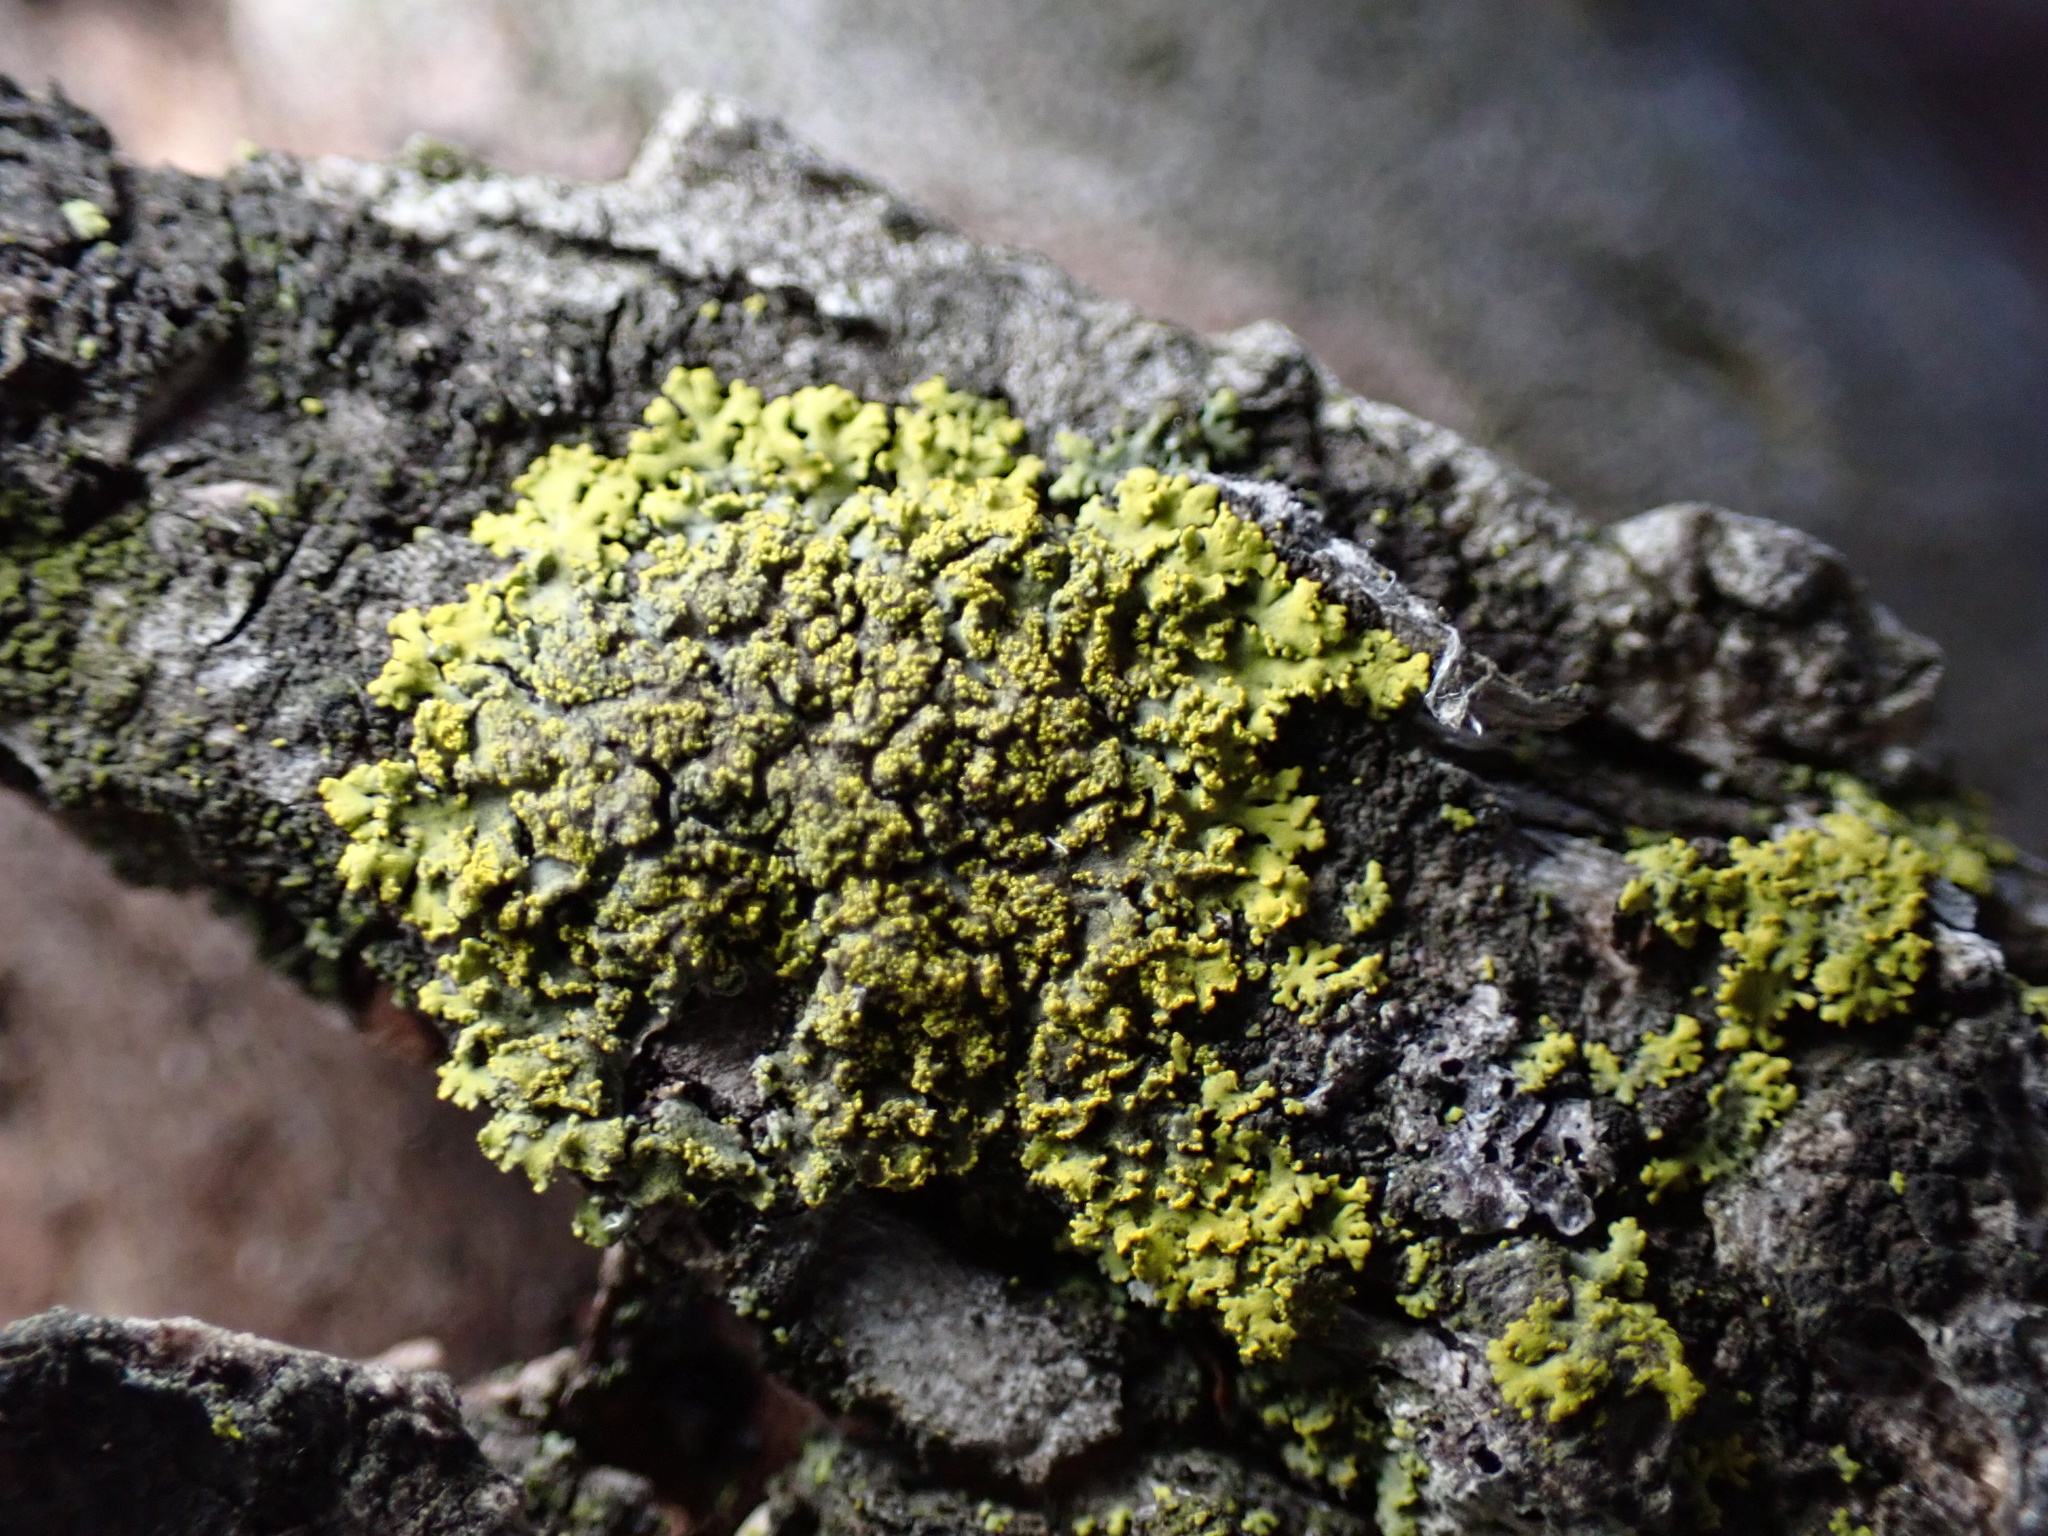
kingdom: Fungi
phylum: Ascomycota
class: Candelariomycetes
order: Candelariales
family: Candelariaceae
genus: Candelaria
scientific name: Candelaria concolor
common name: Candleflame lichen
